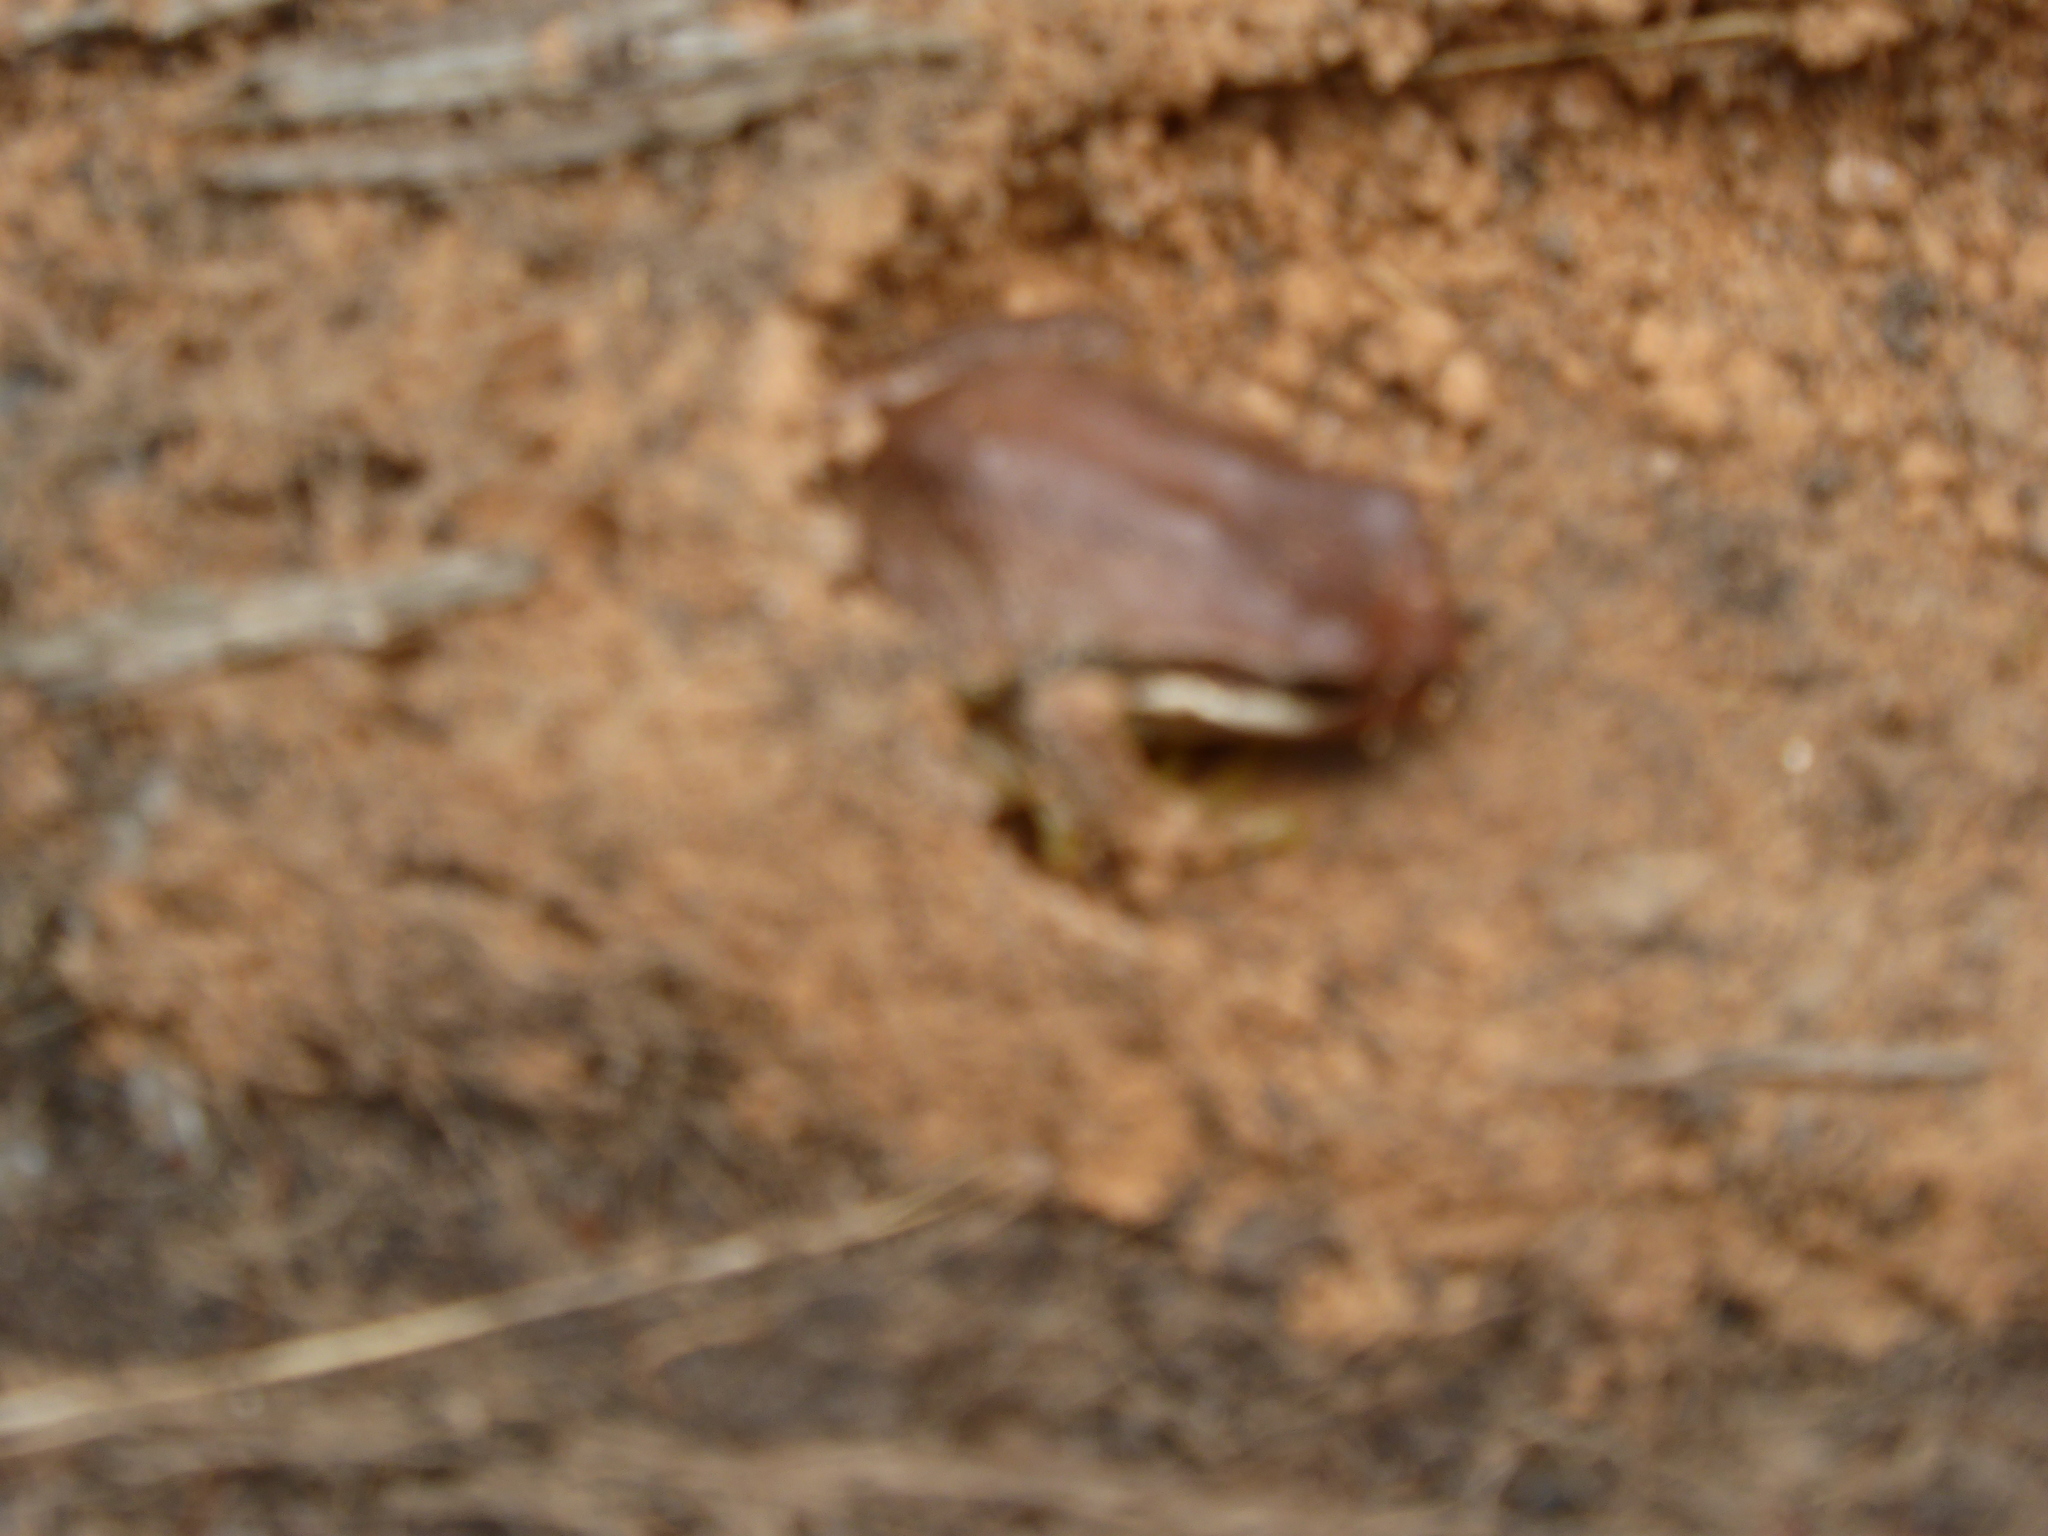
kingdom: Animalia
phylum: Chordata
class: Amphibia
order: Anura
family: Pelodryadidae
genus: Litoria
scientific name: Litoria ewingii
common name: Southern brown tree frog
